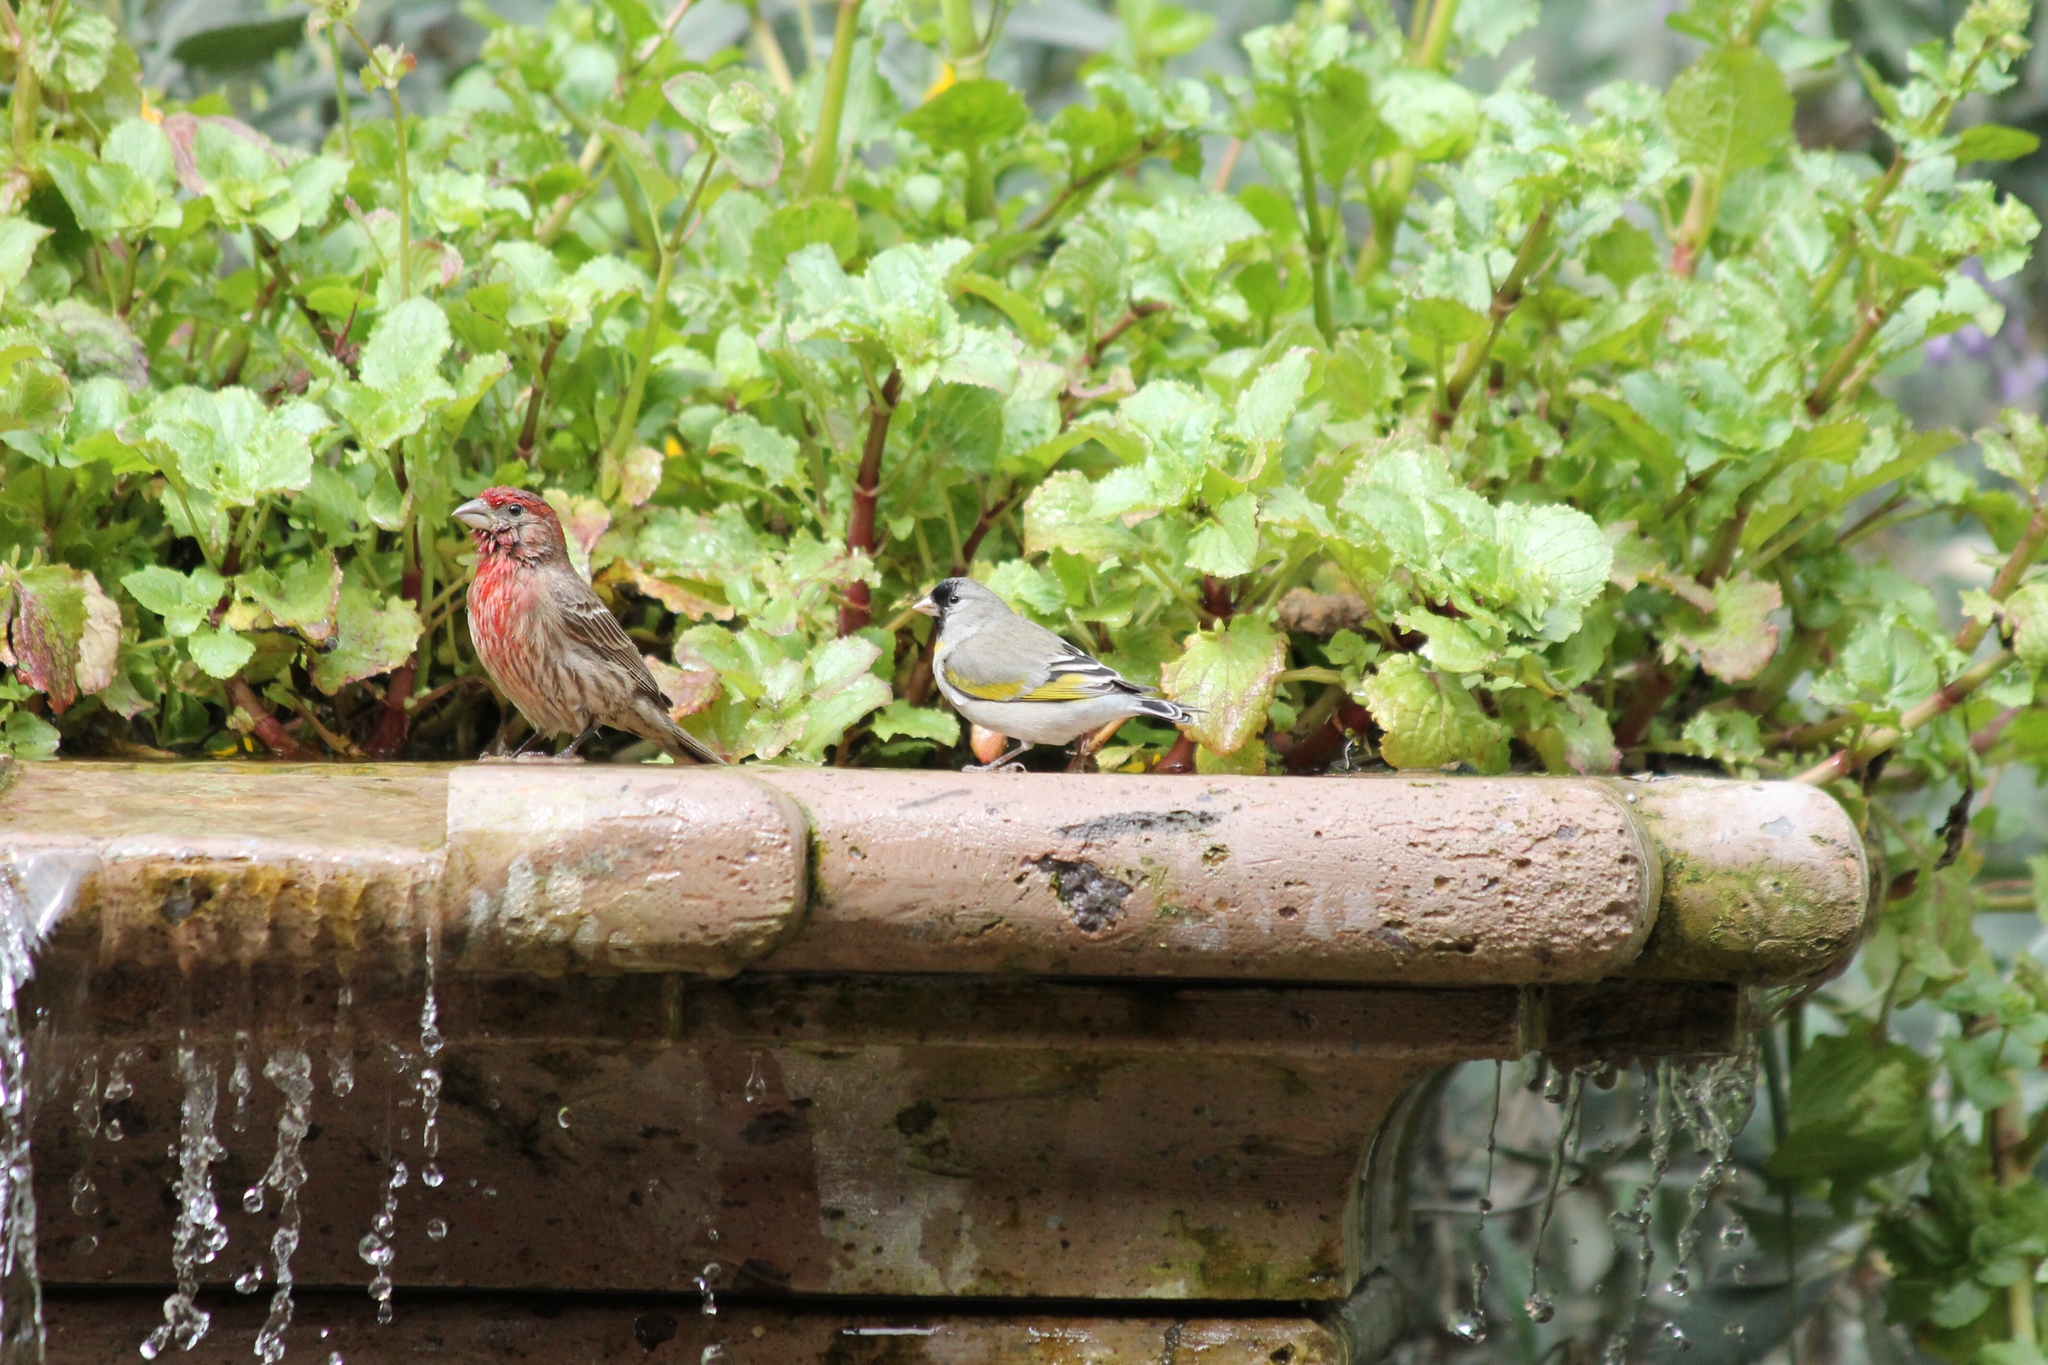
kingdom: Animalia
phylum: Chordata
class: Aves
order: Passeriformes
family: Fringillidae
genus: Haemorhous
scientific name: Haemorhous mexicanus
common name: House finch
